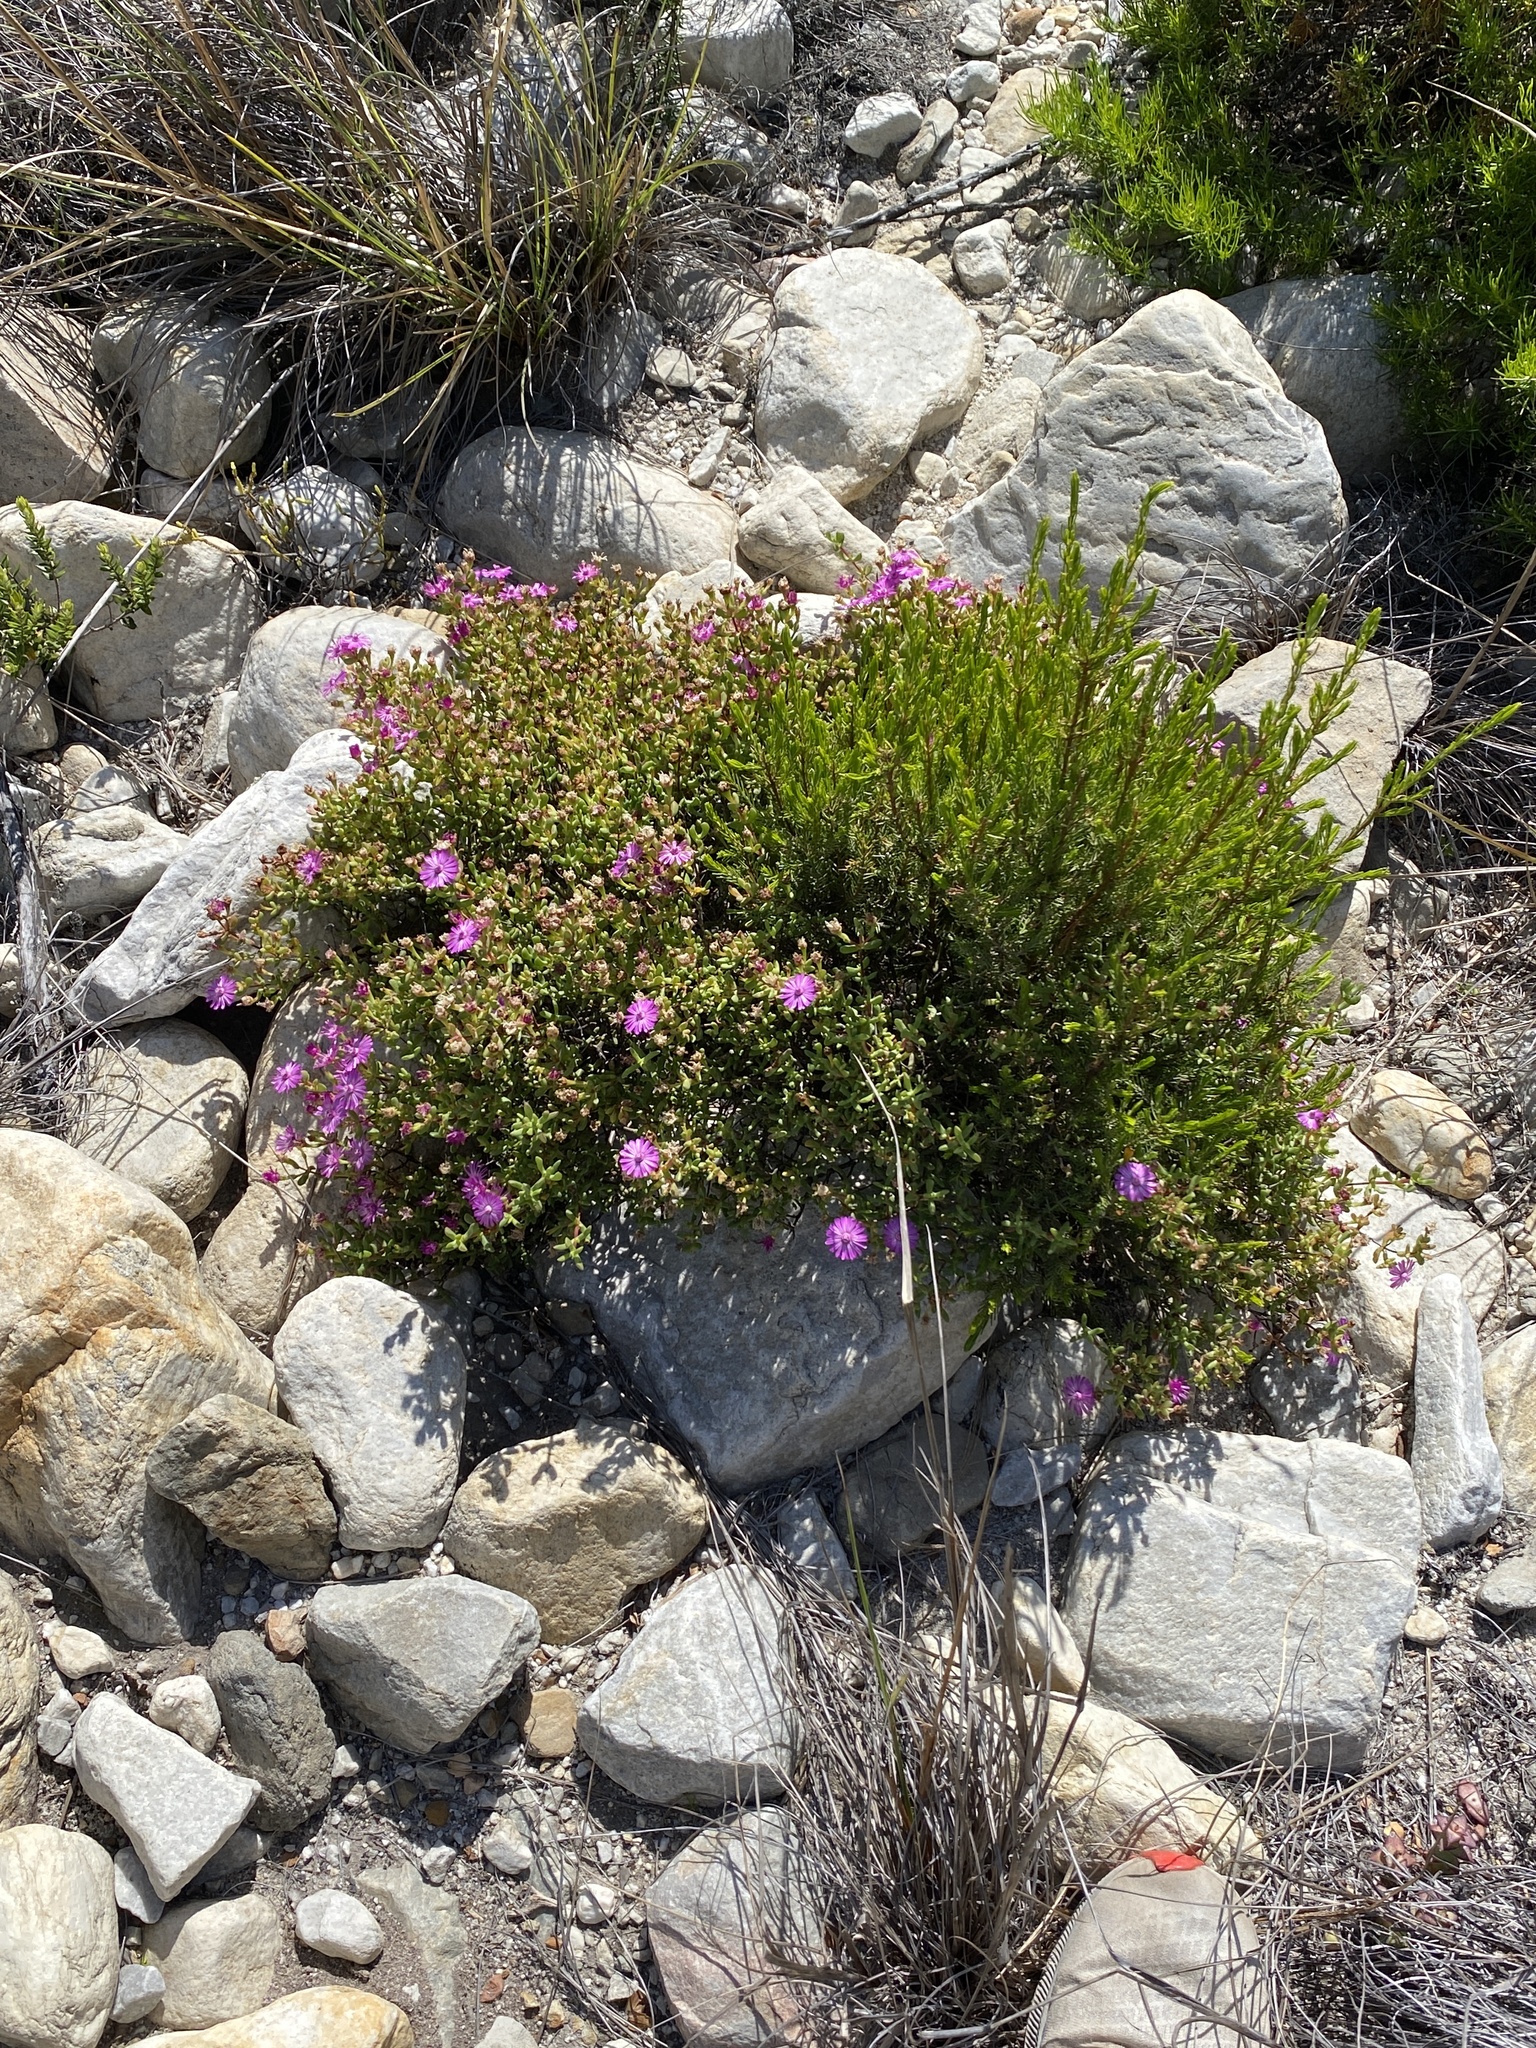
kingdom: Plantae
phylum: Tracheophyta
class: Magnoliopsida
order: Caryophyllales
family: Aizoaceae
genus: Ruschia
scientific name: Ruschia fourcadei
